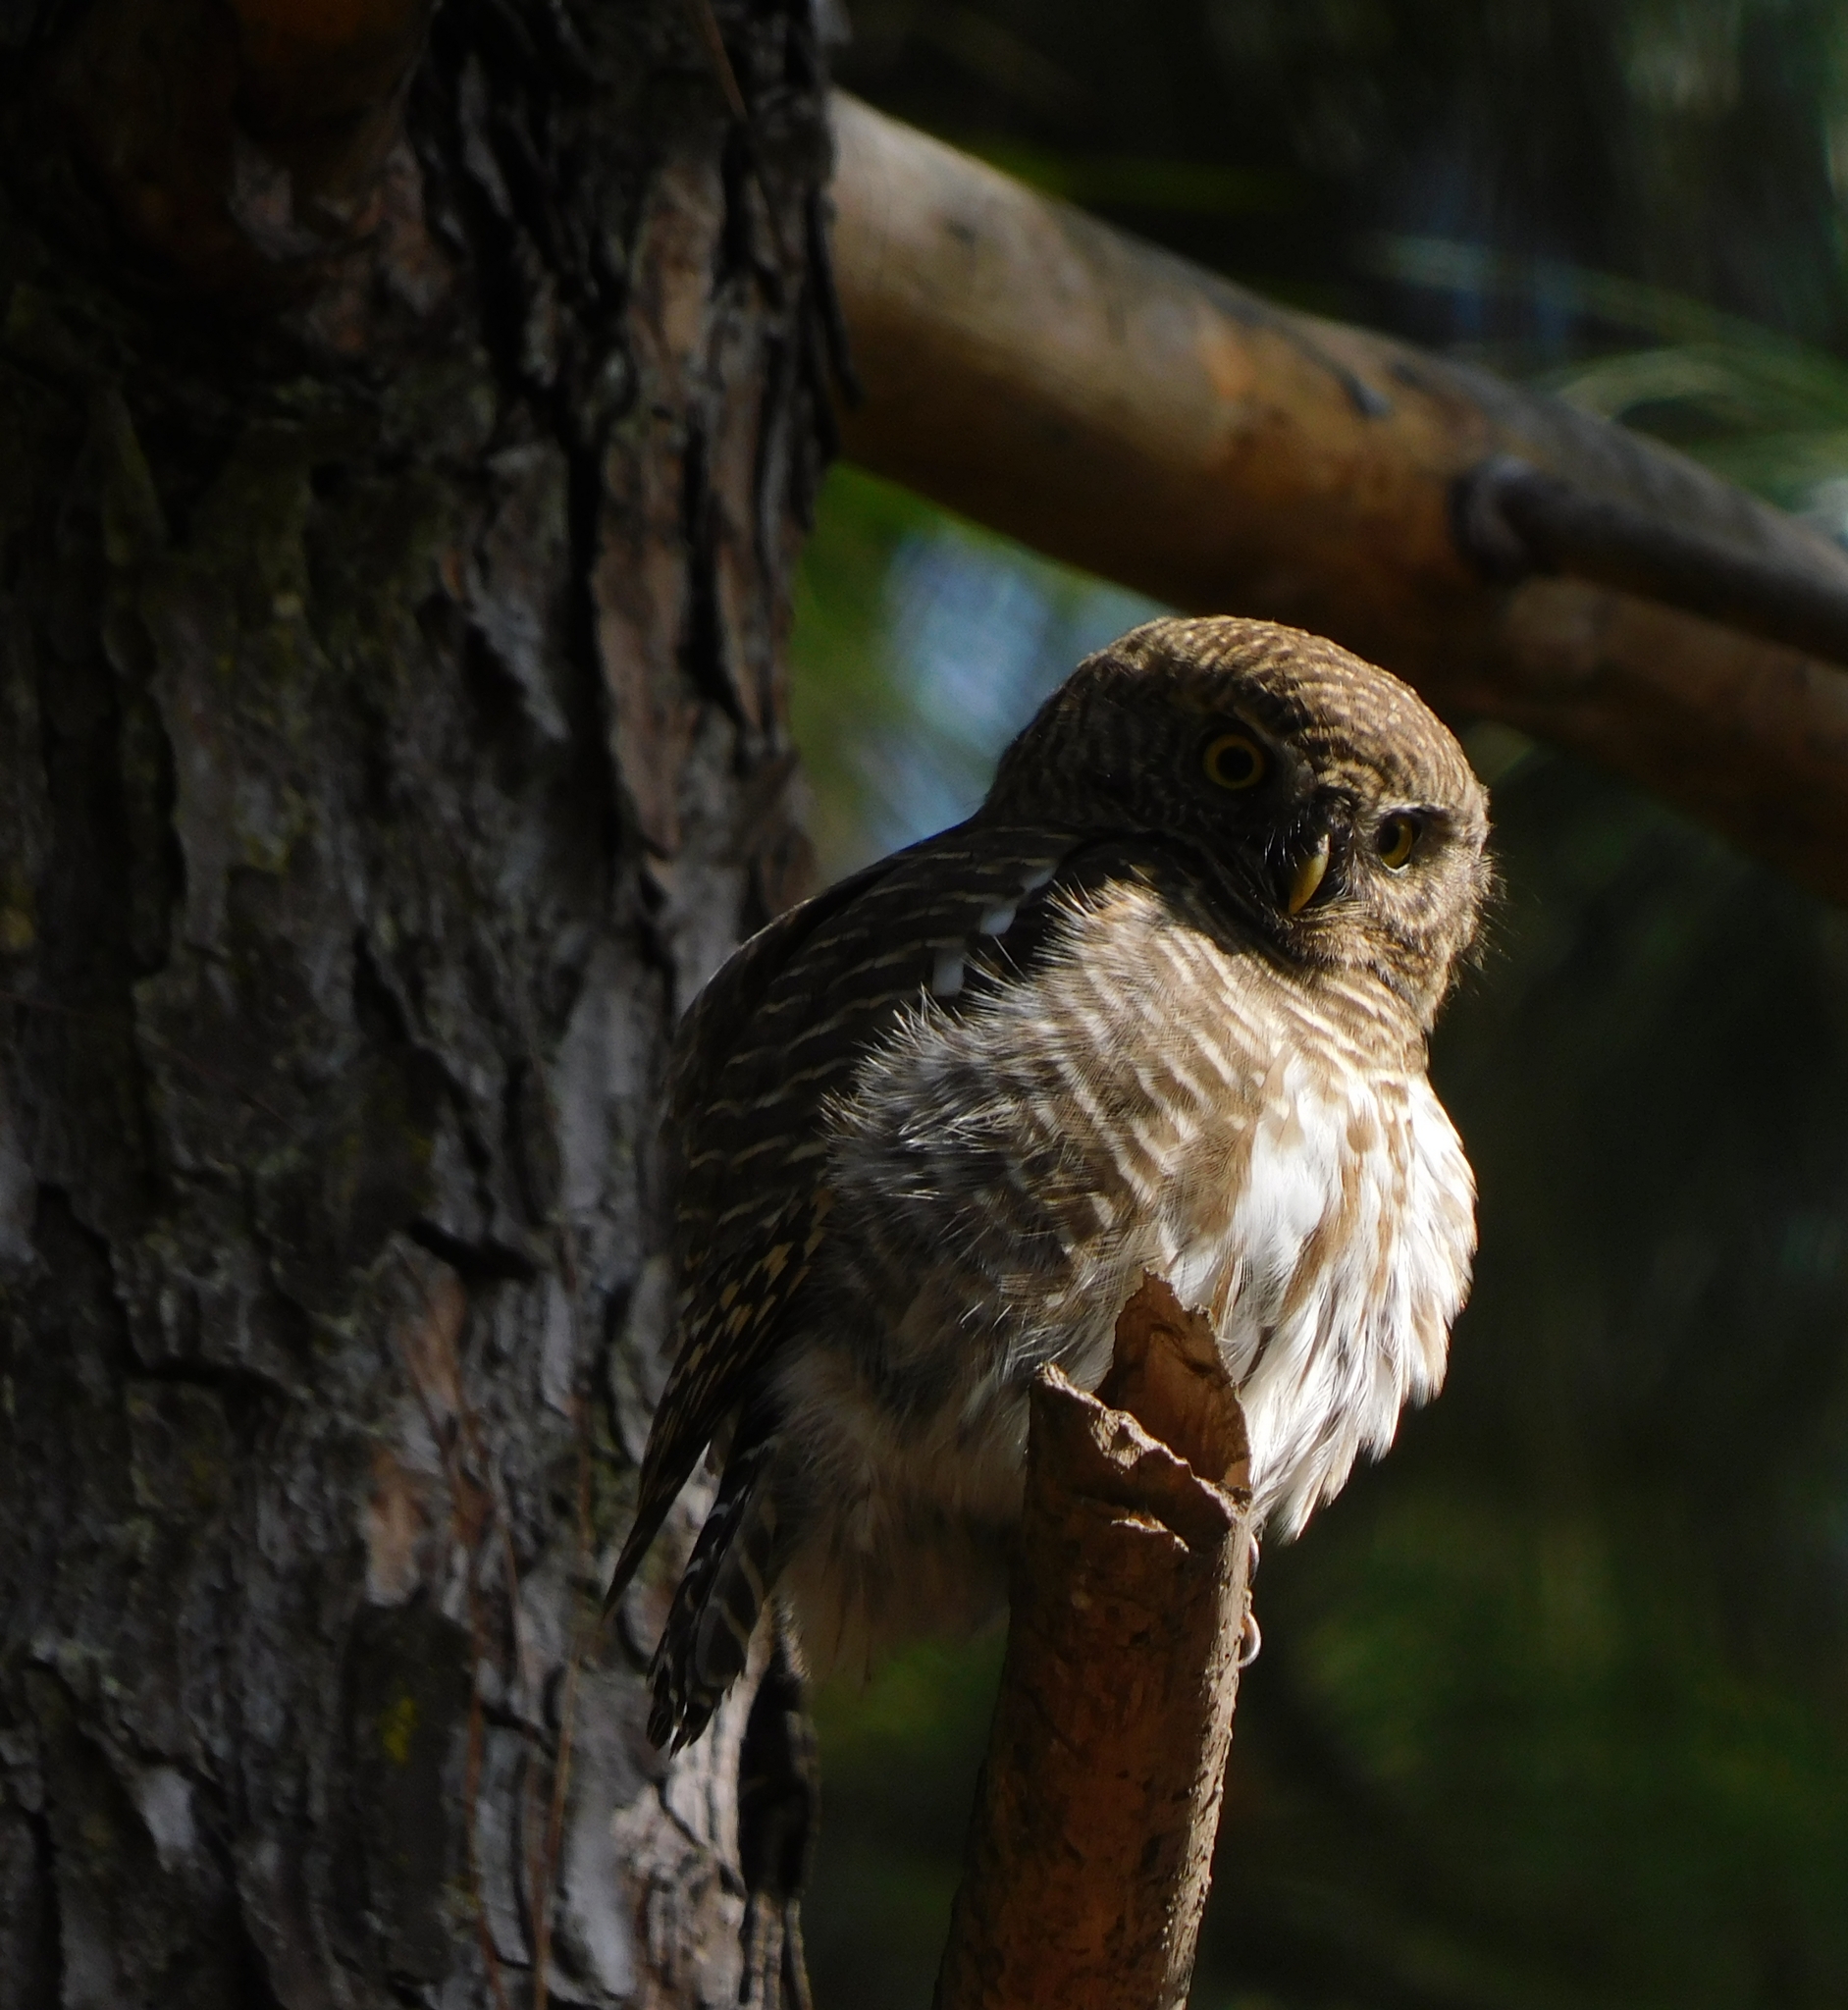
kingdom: Animalia
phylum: Chordata
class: Aves
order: Strigiformes
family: Strigidae
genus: Glaucidium
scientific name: Glaucidium cuculoides
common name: Asian barred owlet
